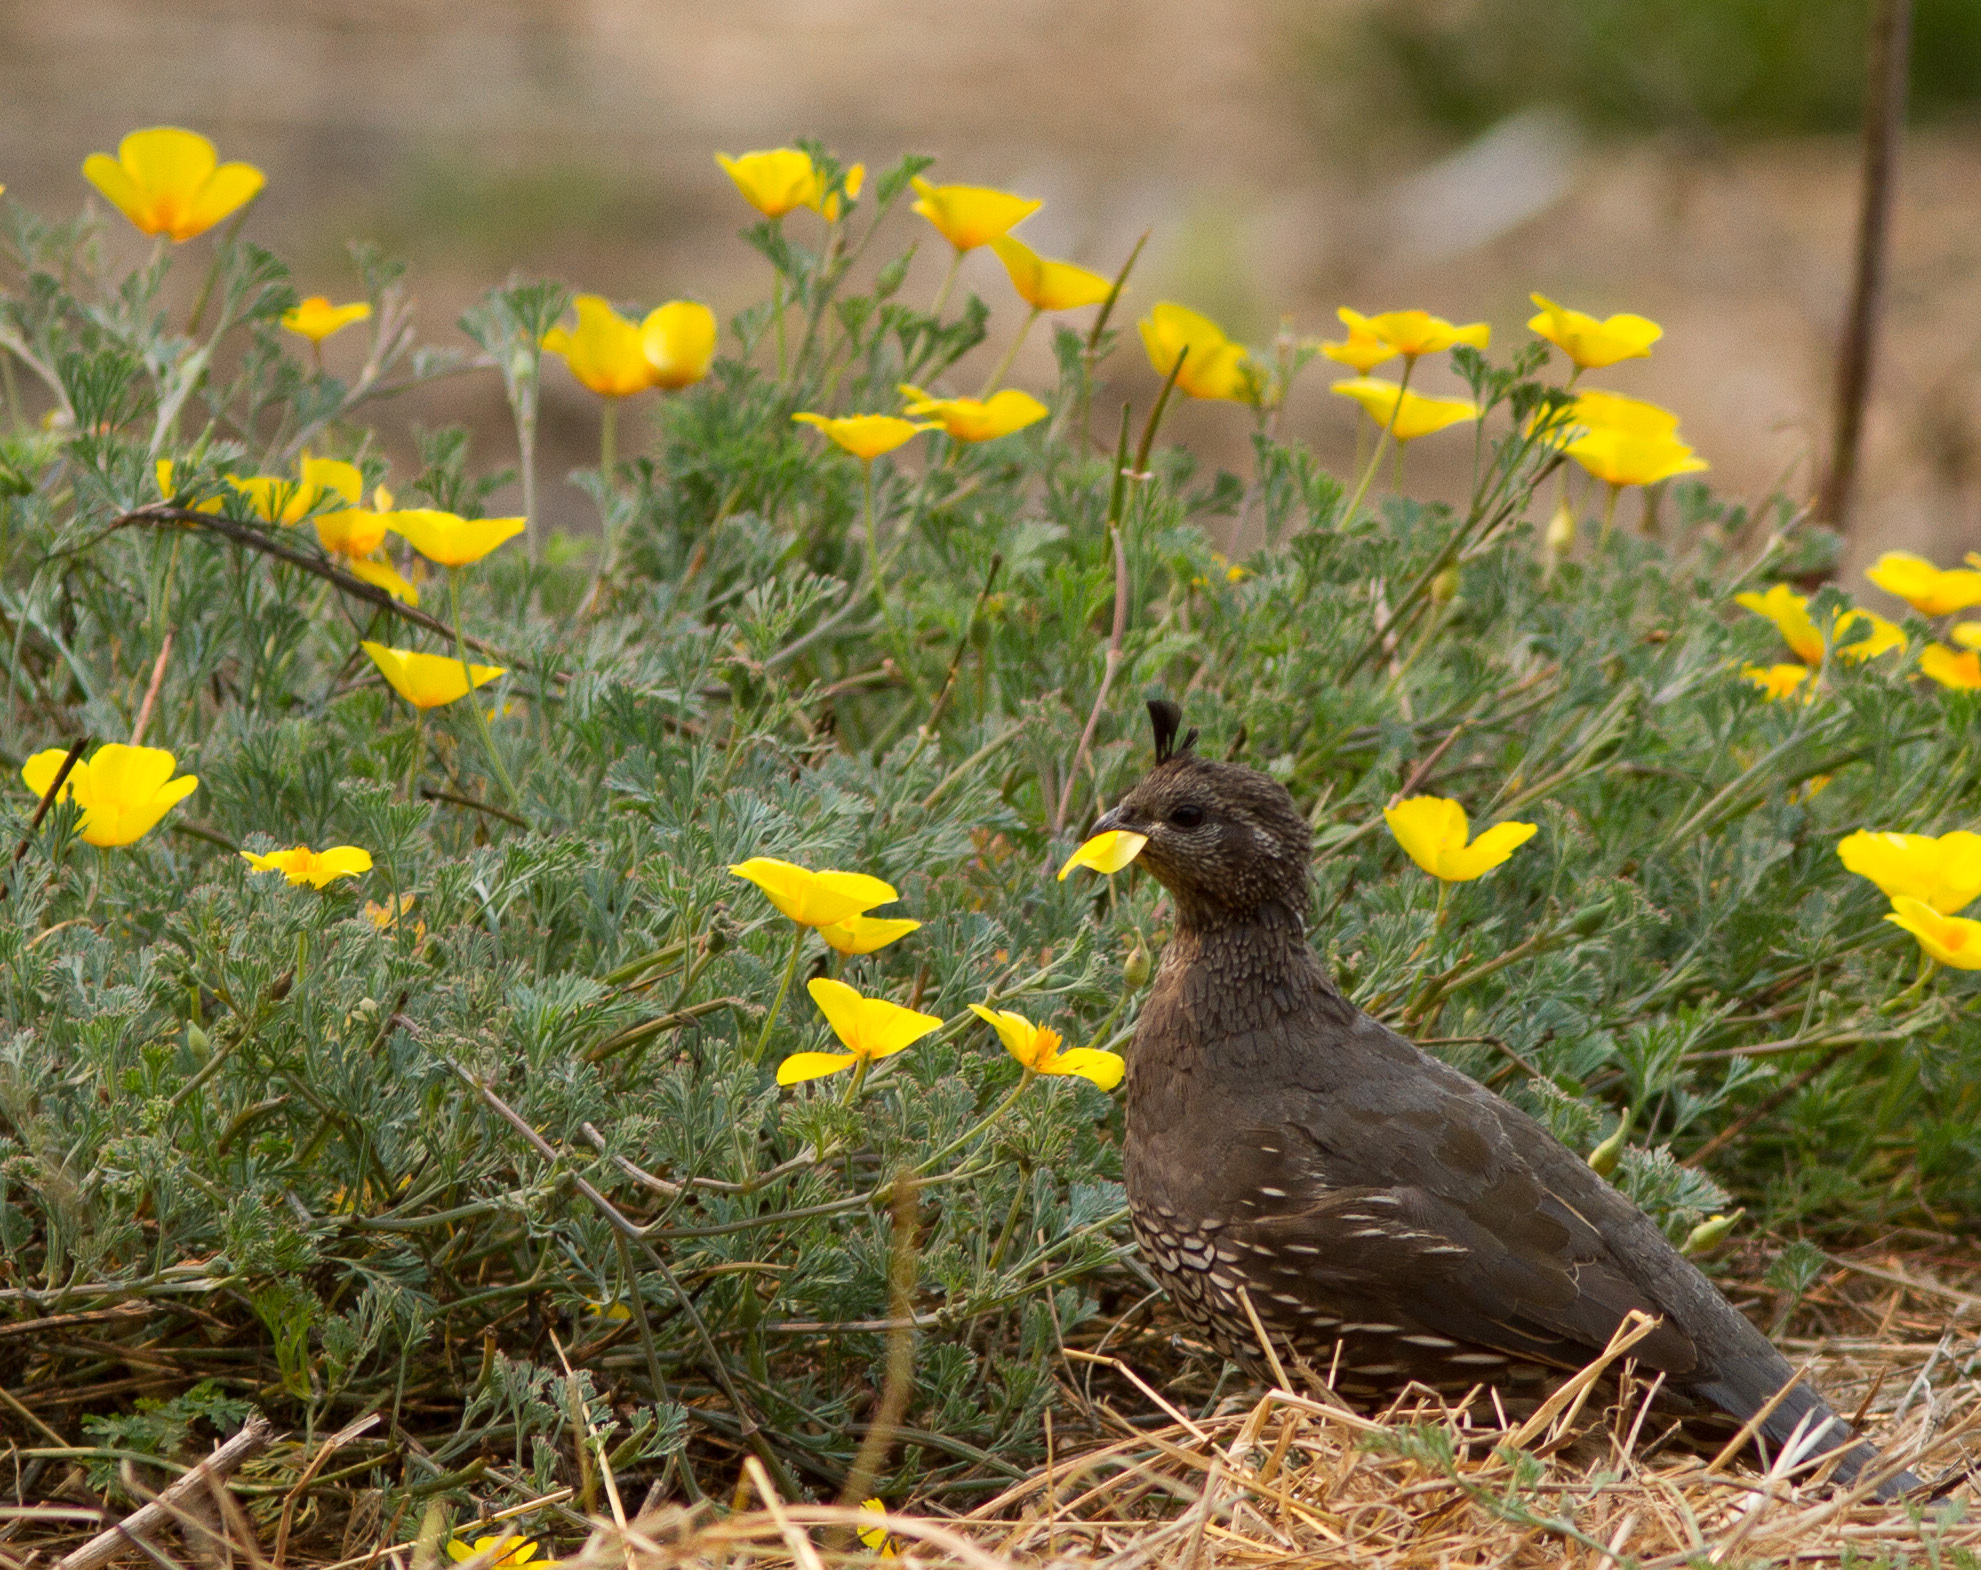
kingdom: Animalia
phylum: Chordata
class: Aves
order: Galliformes
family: Odontophoridae
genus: Callipepla
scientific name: Callipepla californica
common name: California quail
